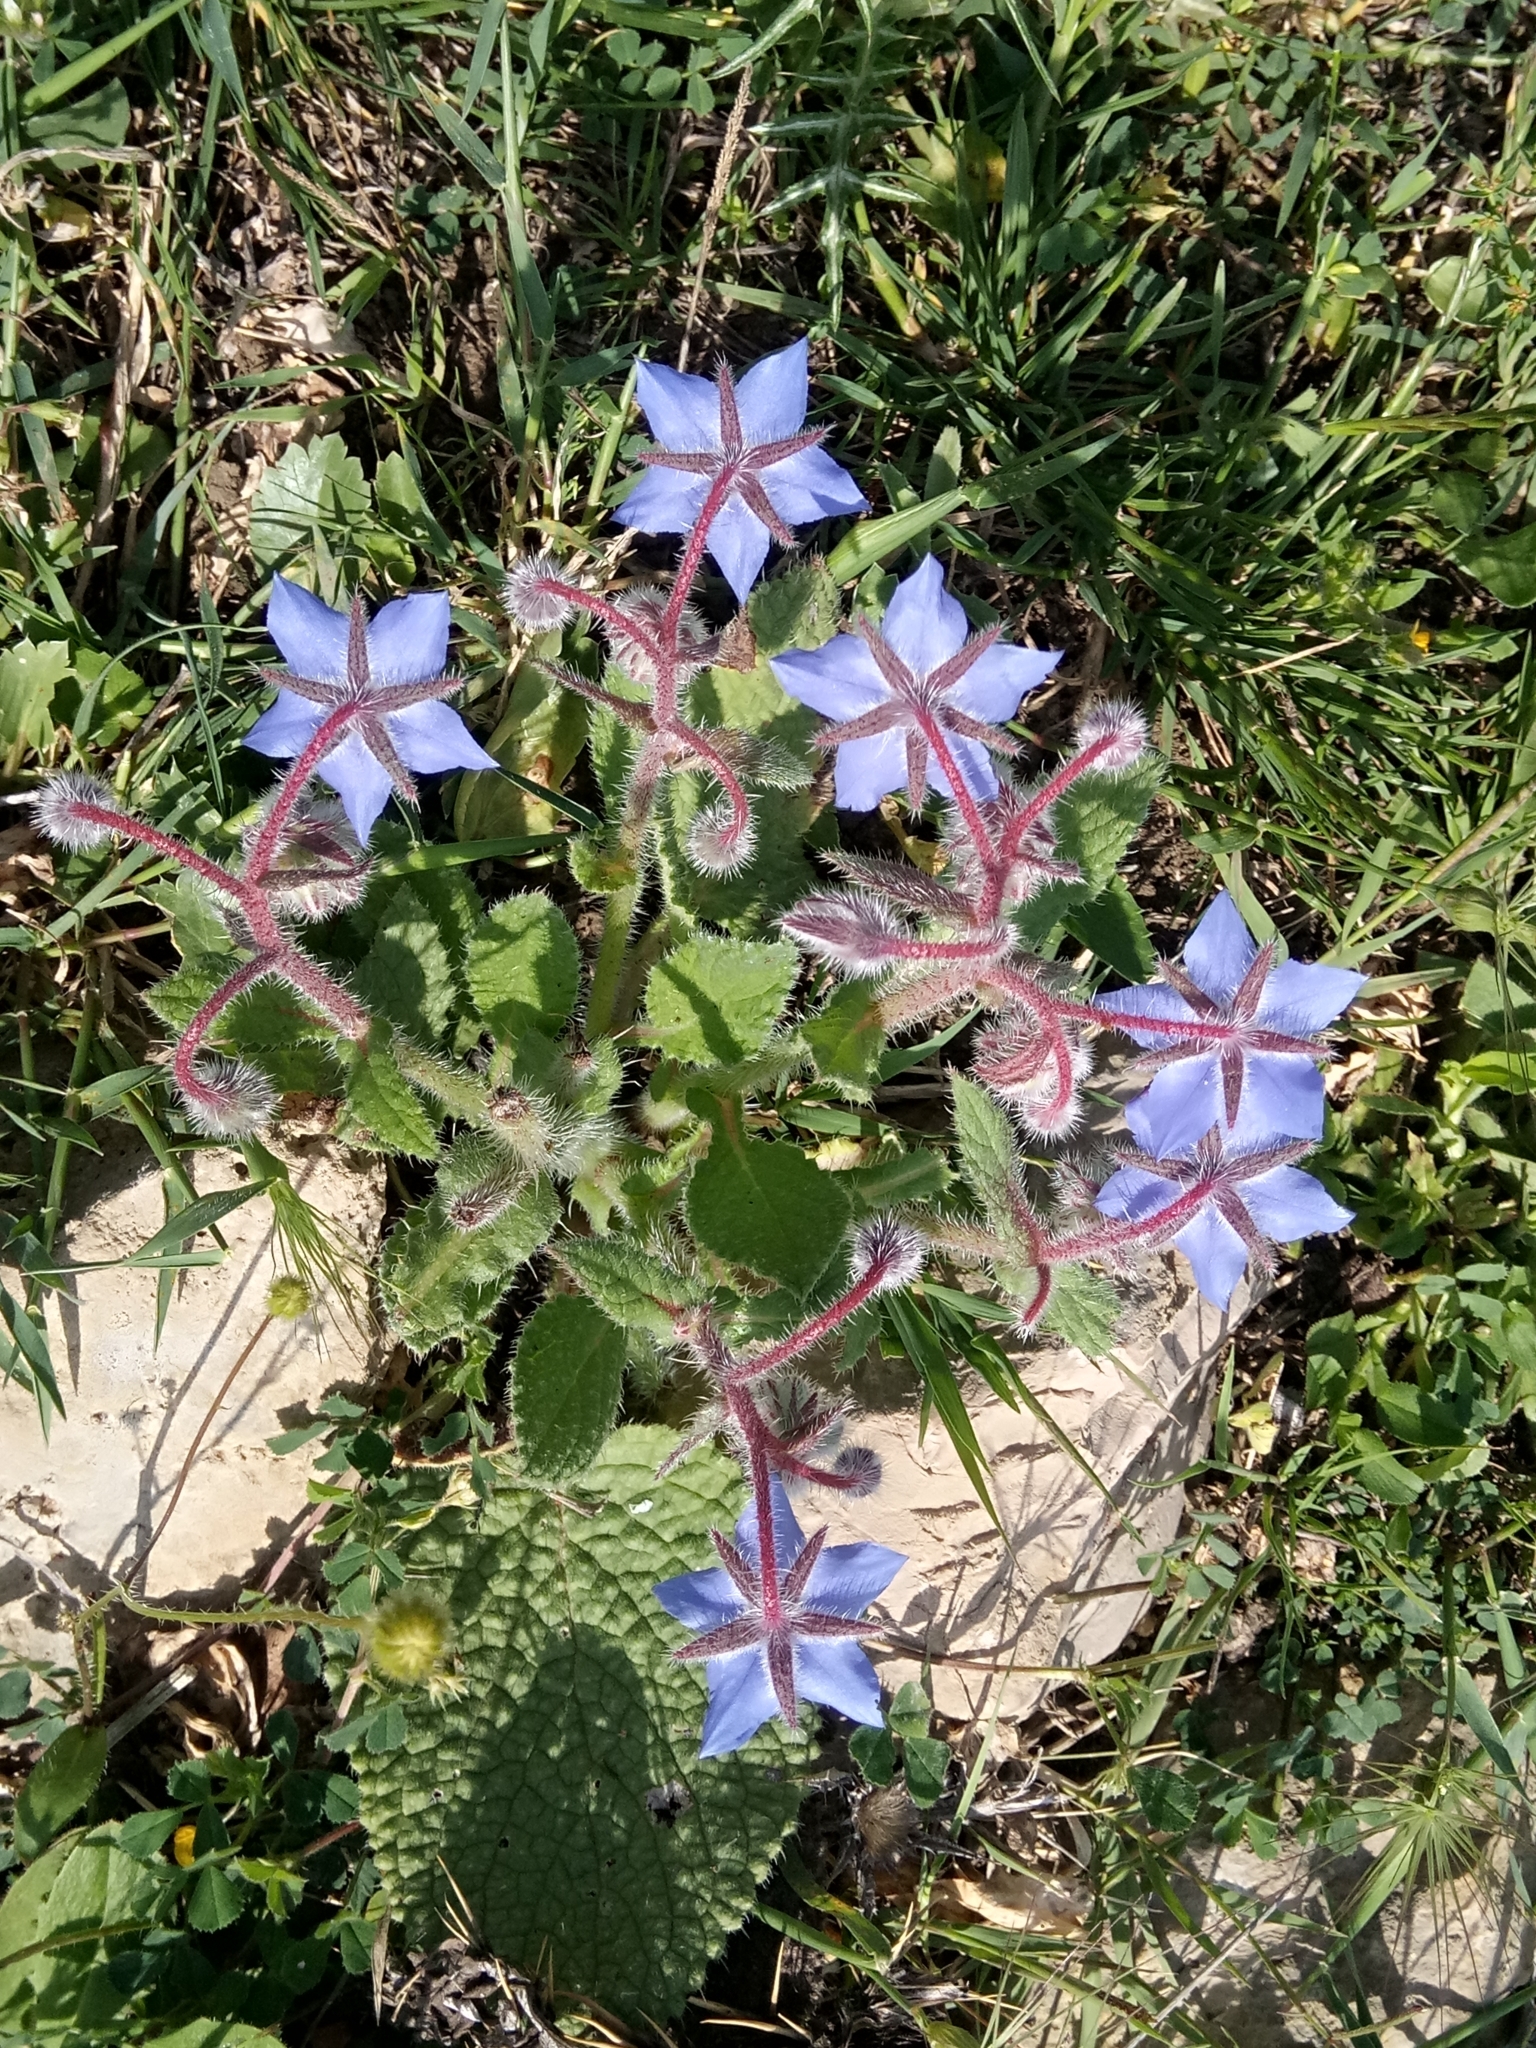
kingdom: Plantae
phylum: Tracheophyta
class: Magnoliopsida
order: Boraginales
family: Boraginaceae
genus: Borago
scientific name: Borago officinalis
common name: Borage
